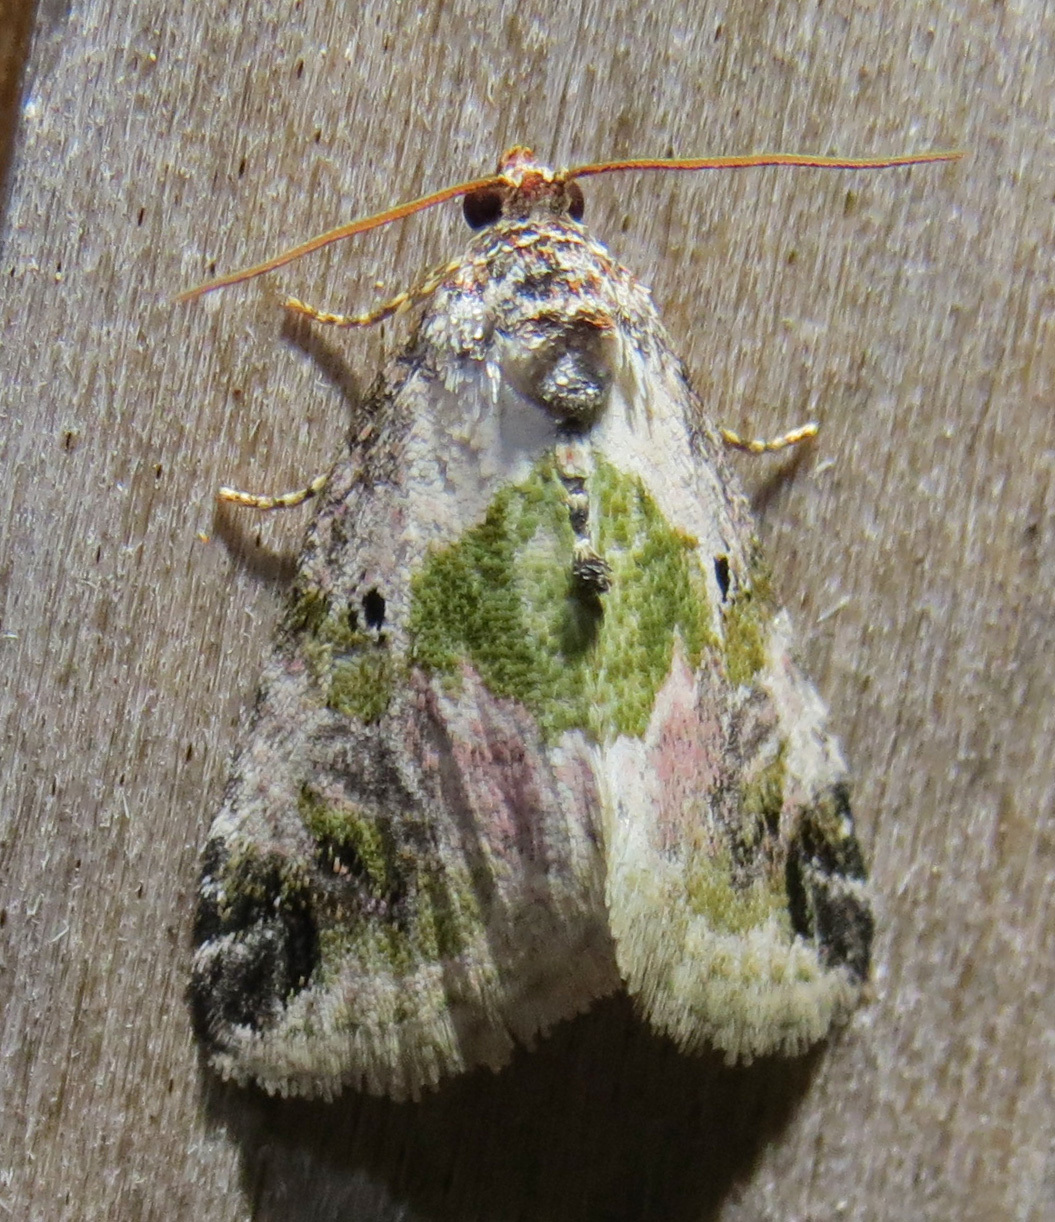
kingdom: Animalia
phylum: Arthropoda
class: Insecta
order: Lepidoptera
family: Noctuidae
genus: Maliattha
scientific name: Maliattha synochitis
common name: Black-dotted glyph
